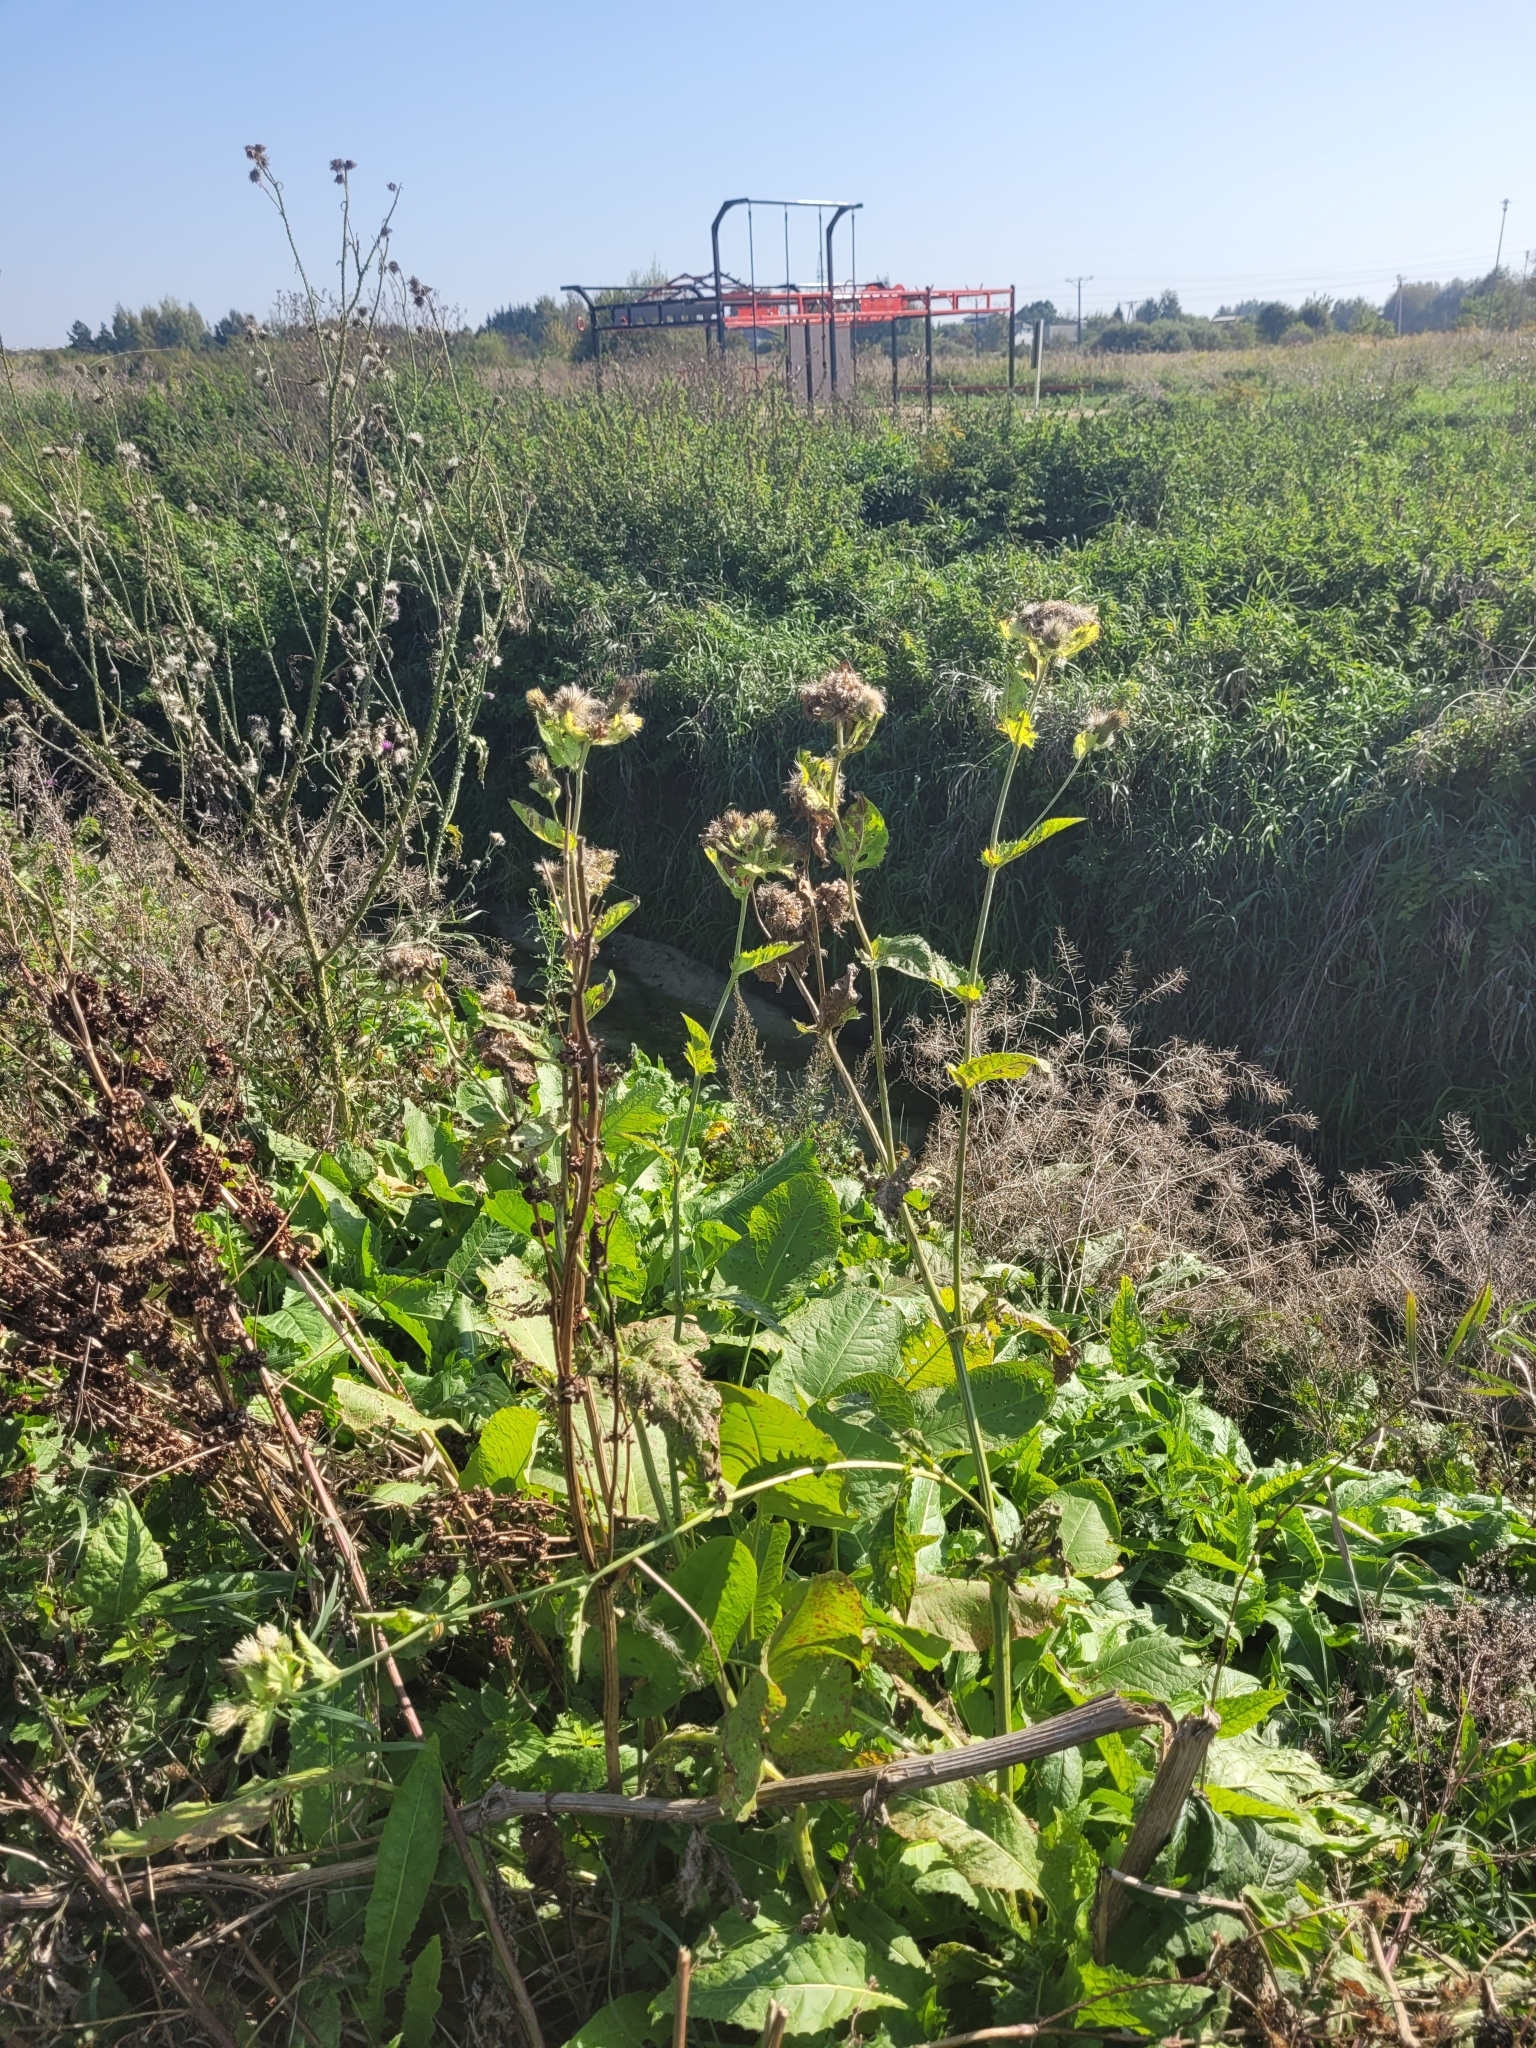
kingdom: Plantae
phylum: Tracheophyta
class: Magnoliopsida
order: Asterales
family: Asteraceae
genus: Cirsium
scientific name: Cirsium oleraceum
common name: Cabbage thistle
